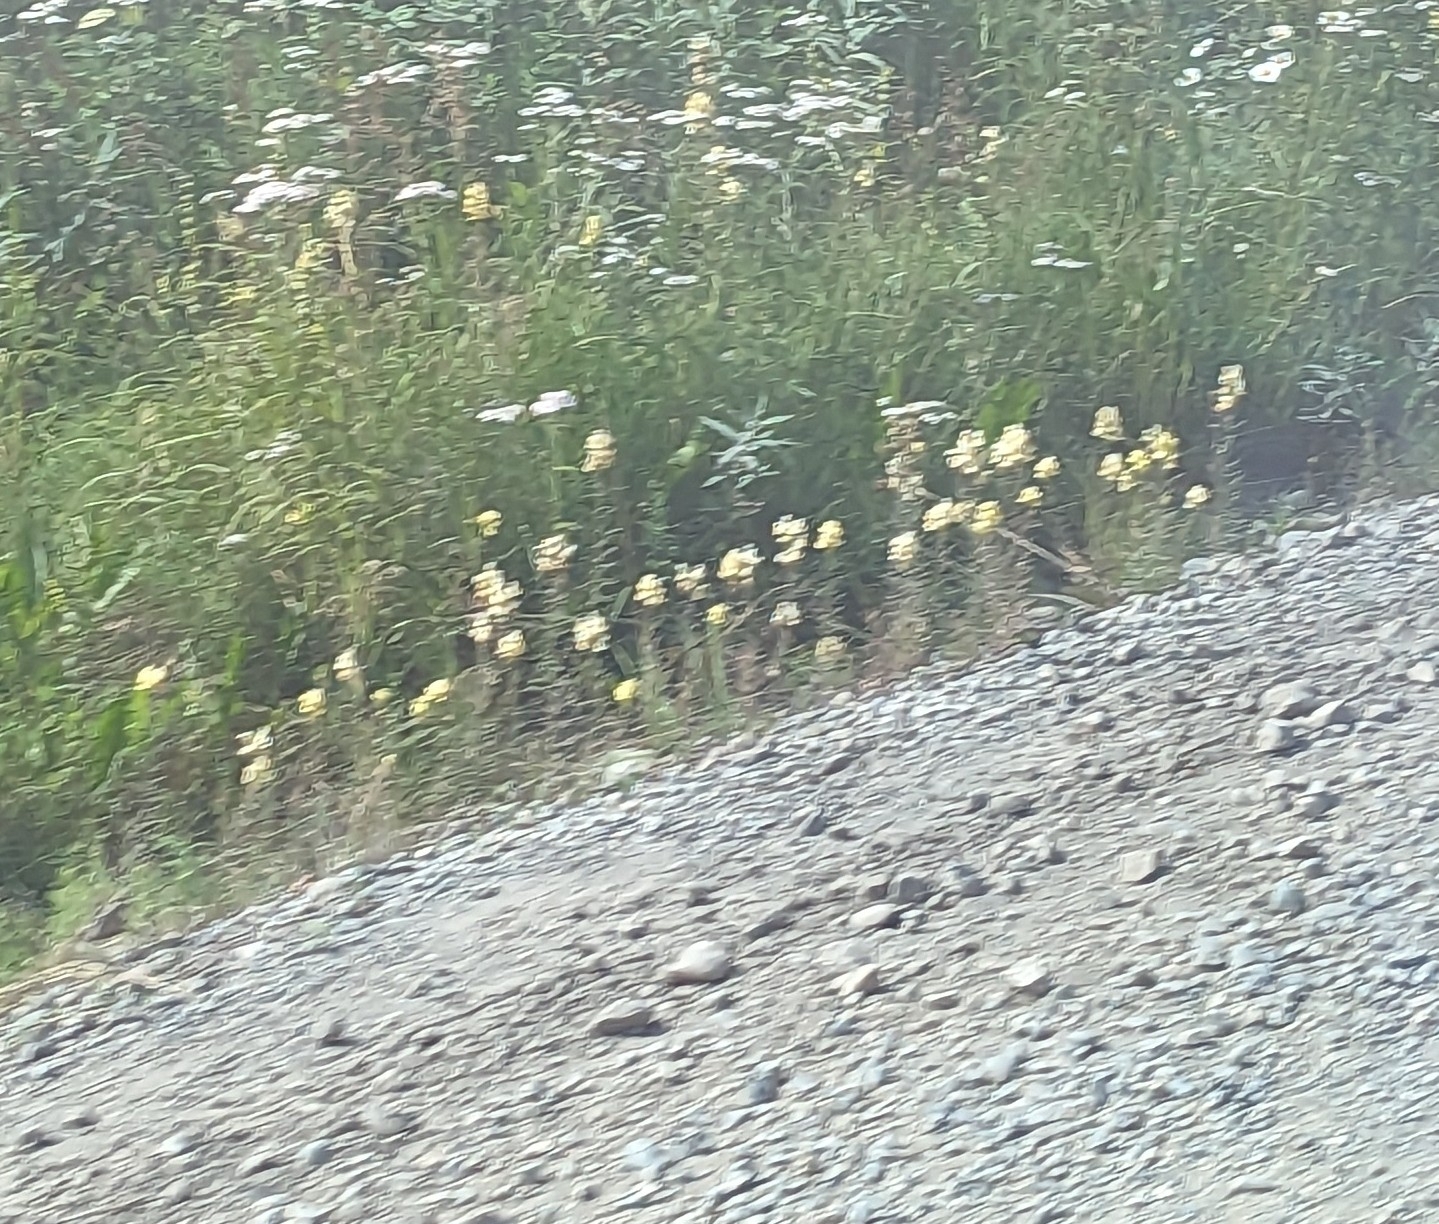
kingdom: Plantae
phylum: Tracheophyta
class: Magnoliopsida
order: Lamiales
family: Plantaginaceae
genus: Linaria
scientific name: Linaria vulgaris
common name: Butter and eggs
